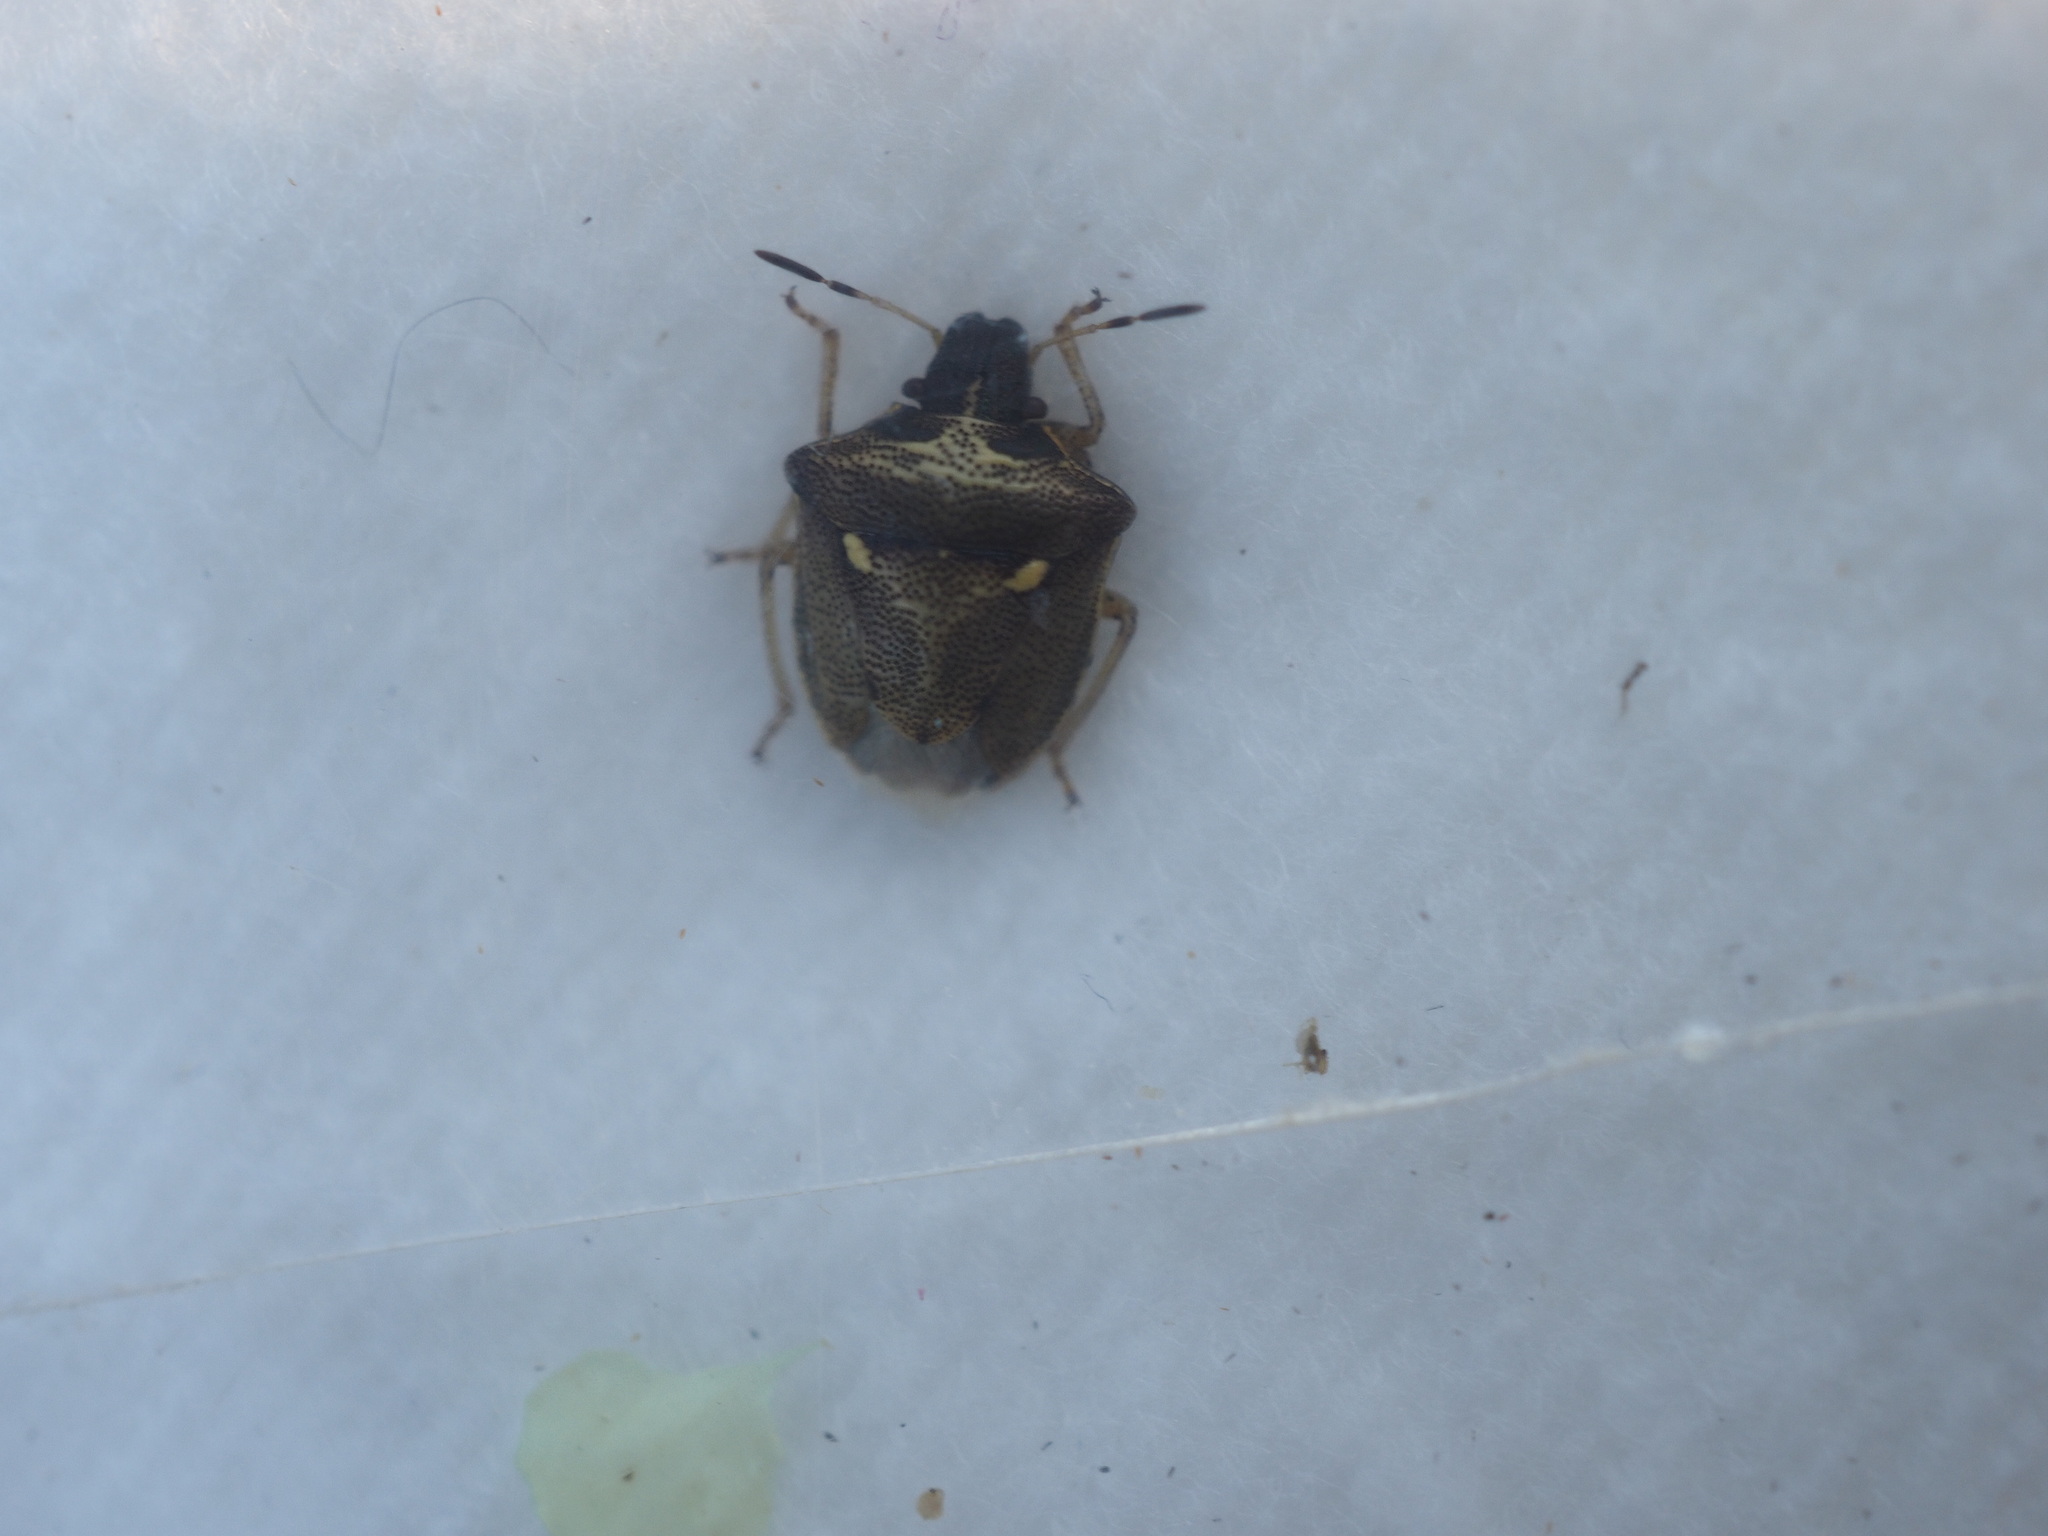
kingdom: Animalia
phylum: Arthropoda
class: Insecta
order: Hemiptera
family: Pentatomidae
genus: Eysarcoris
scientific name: Eysarcoris aeneus
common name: New forest shieldbug
